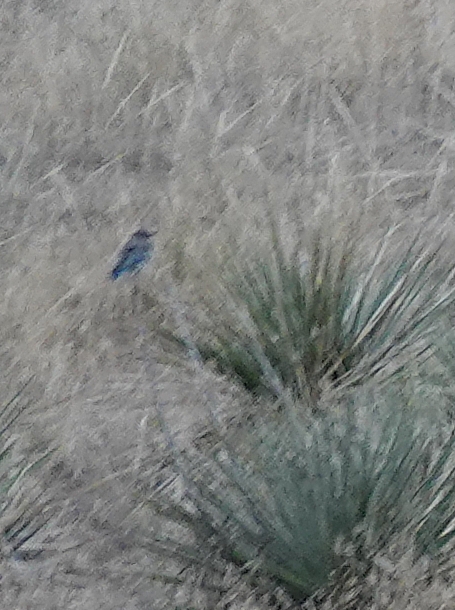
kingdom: Animalia
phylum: Chordata
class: Aves
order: Passeriformes
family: Turdidae
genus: Sialia
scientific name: Sialia currucoides
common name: Mountain bluebird
